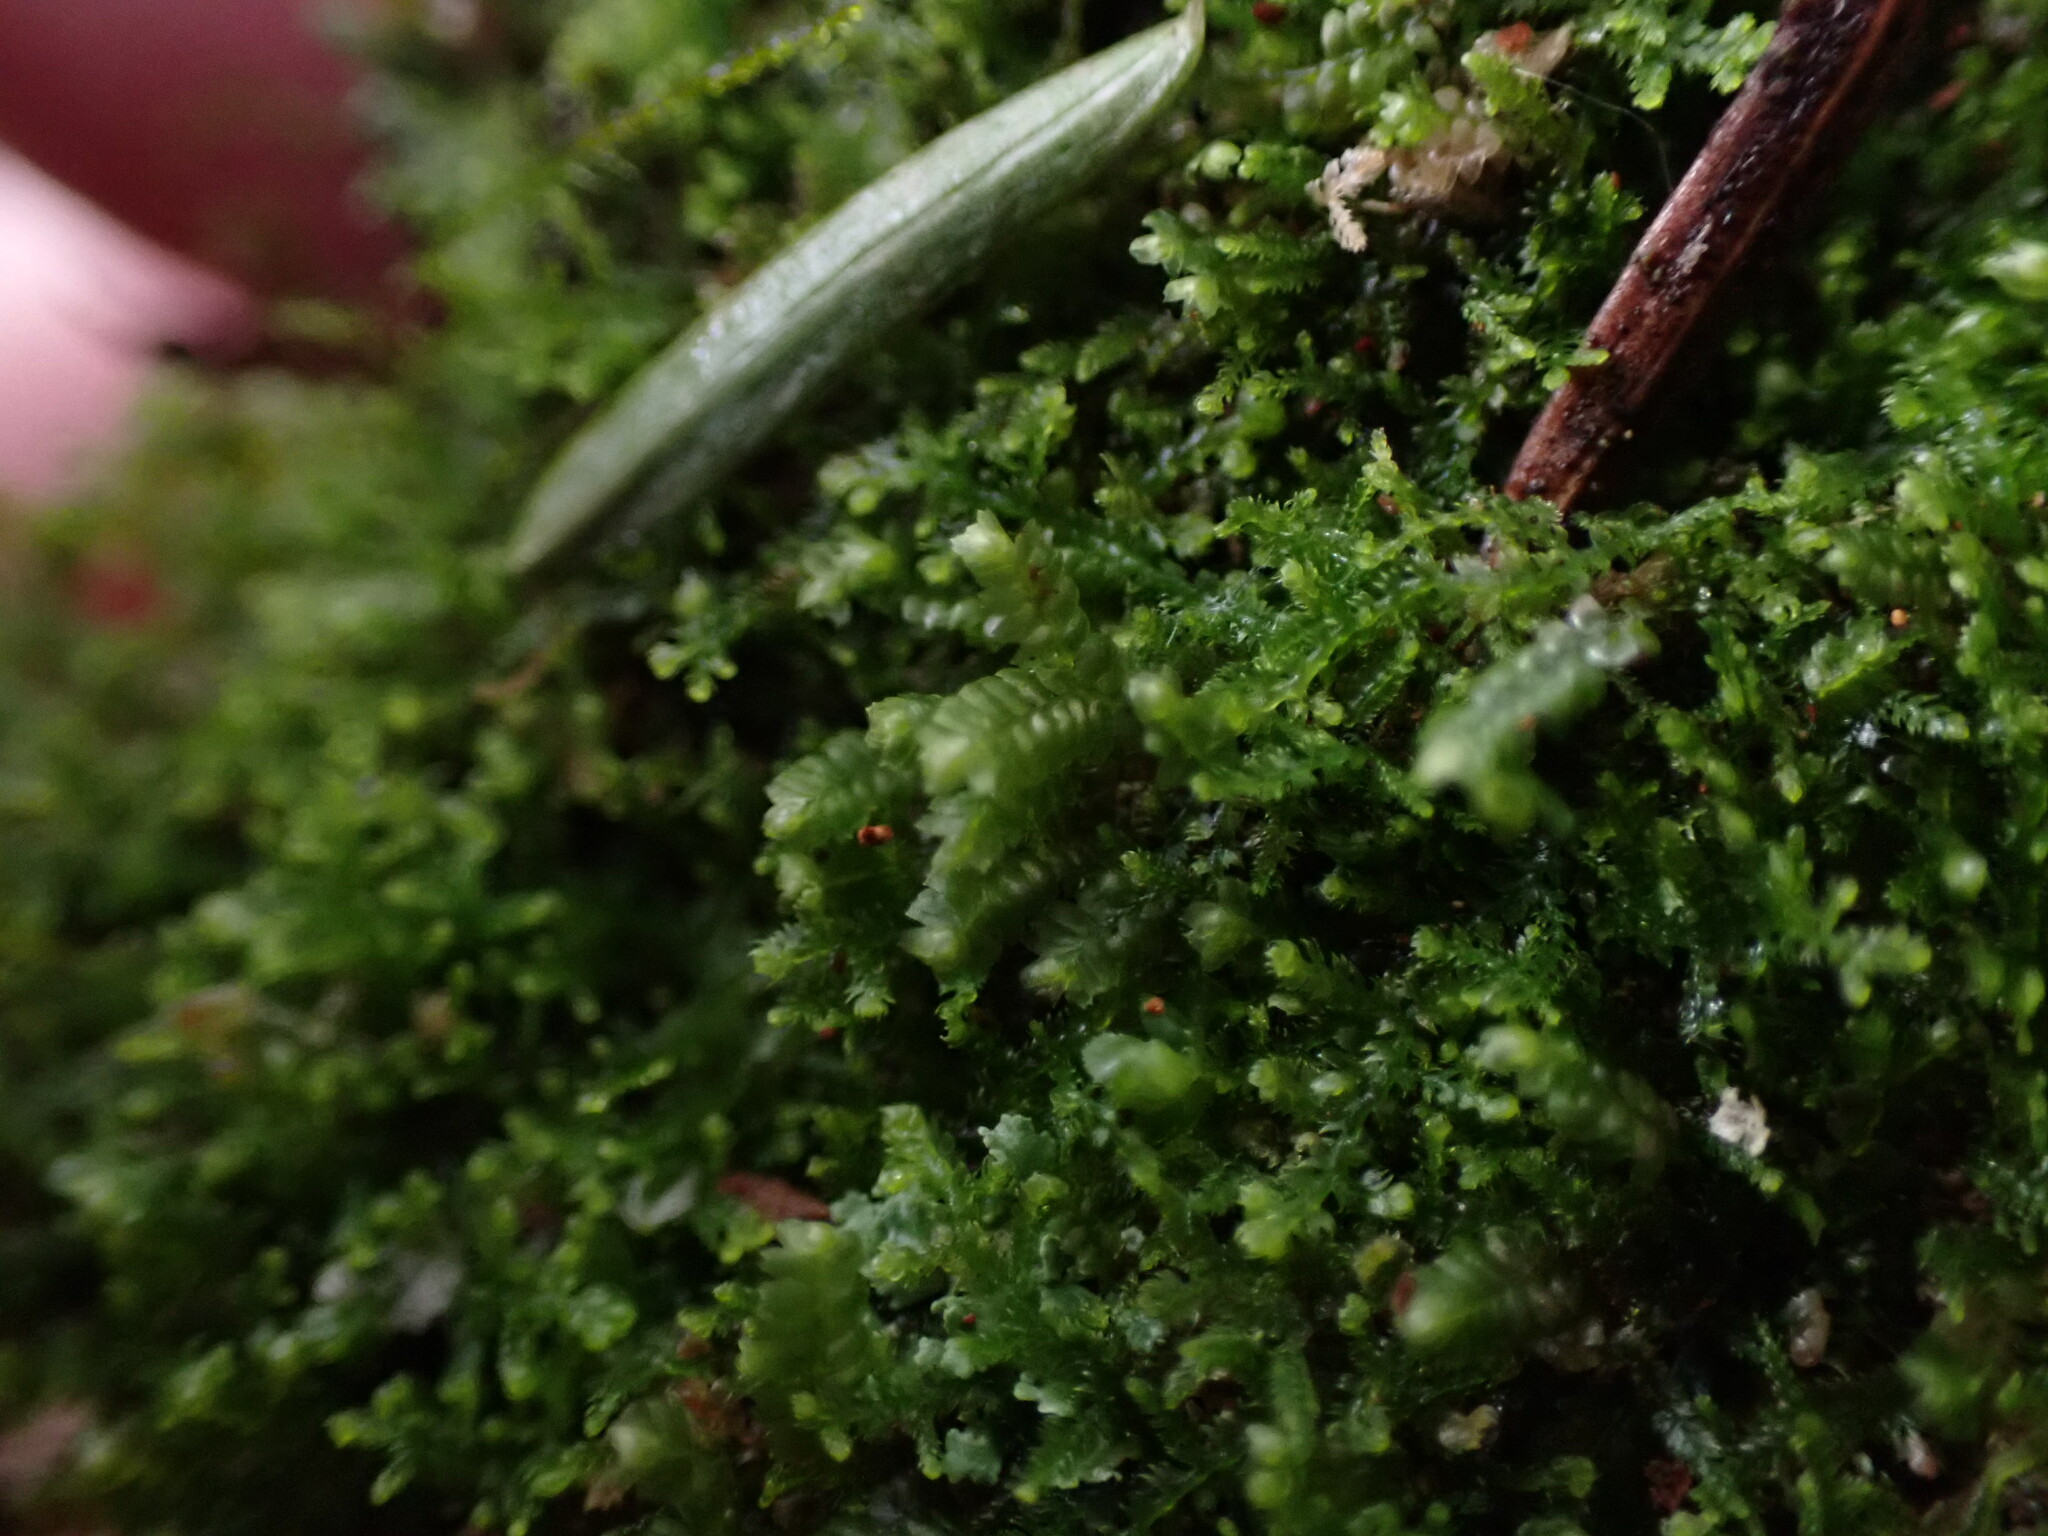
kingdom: Plantae
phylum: Marchantiophyta
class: Jungermanniopsida
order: Jungermanniales
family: Lepidoziaceae
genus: Bazzania
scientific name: Bazzania denudata
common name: Naked whipwort
